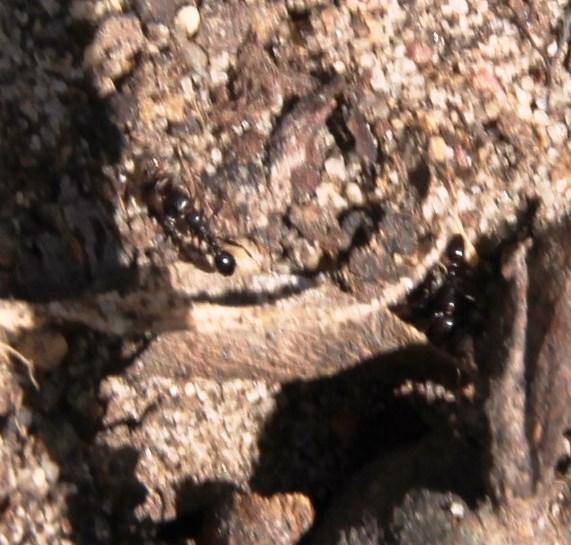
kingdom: Animalia
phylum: Arthropoda
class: Insecta
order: Hymenoptera
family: Formicidae
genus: Tetramorium
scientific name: Tetramorium sericeiventre
